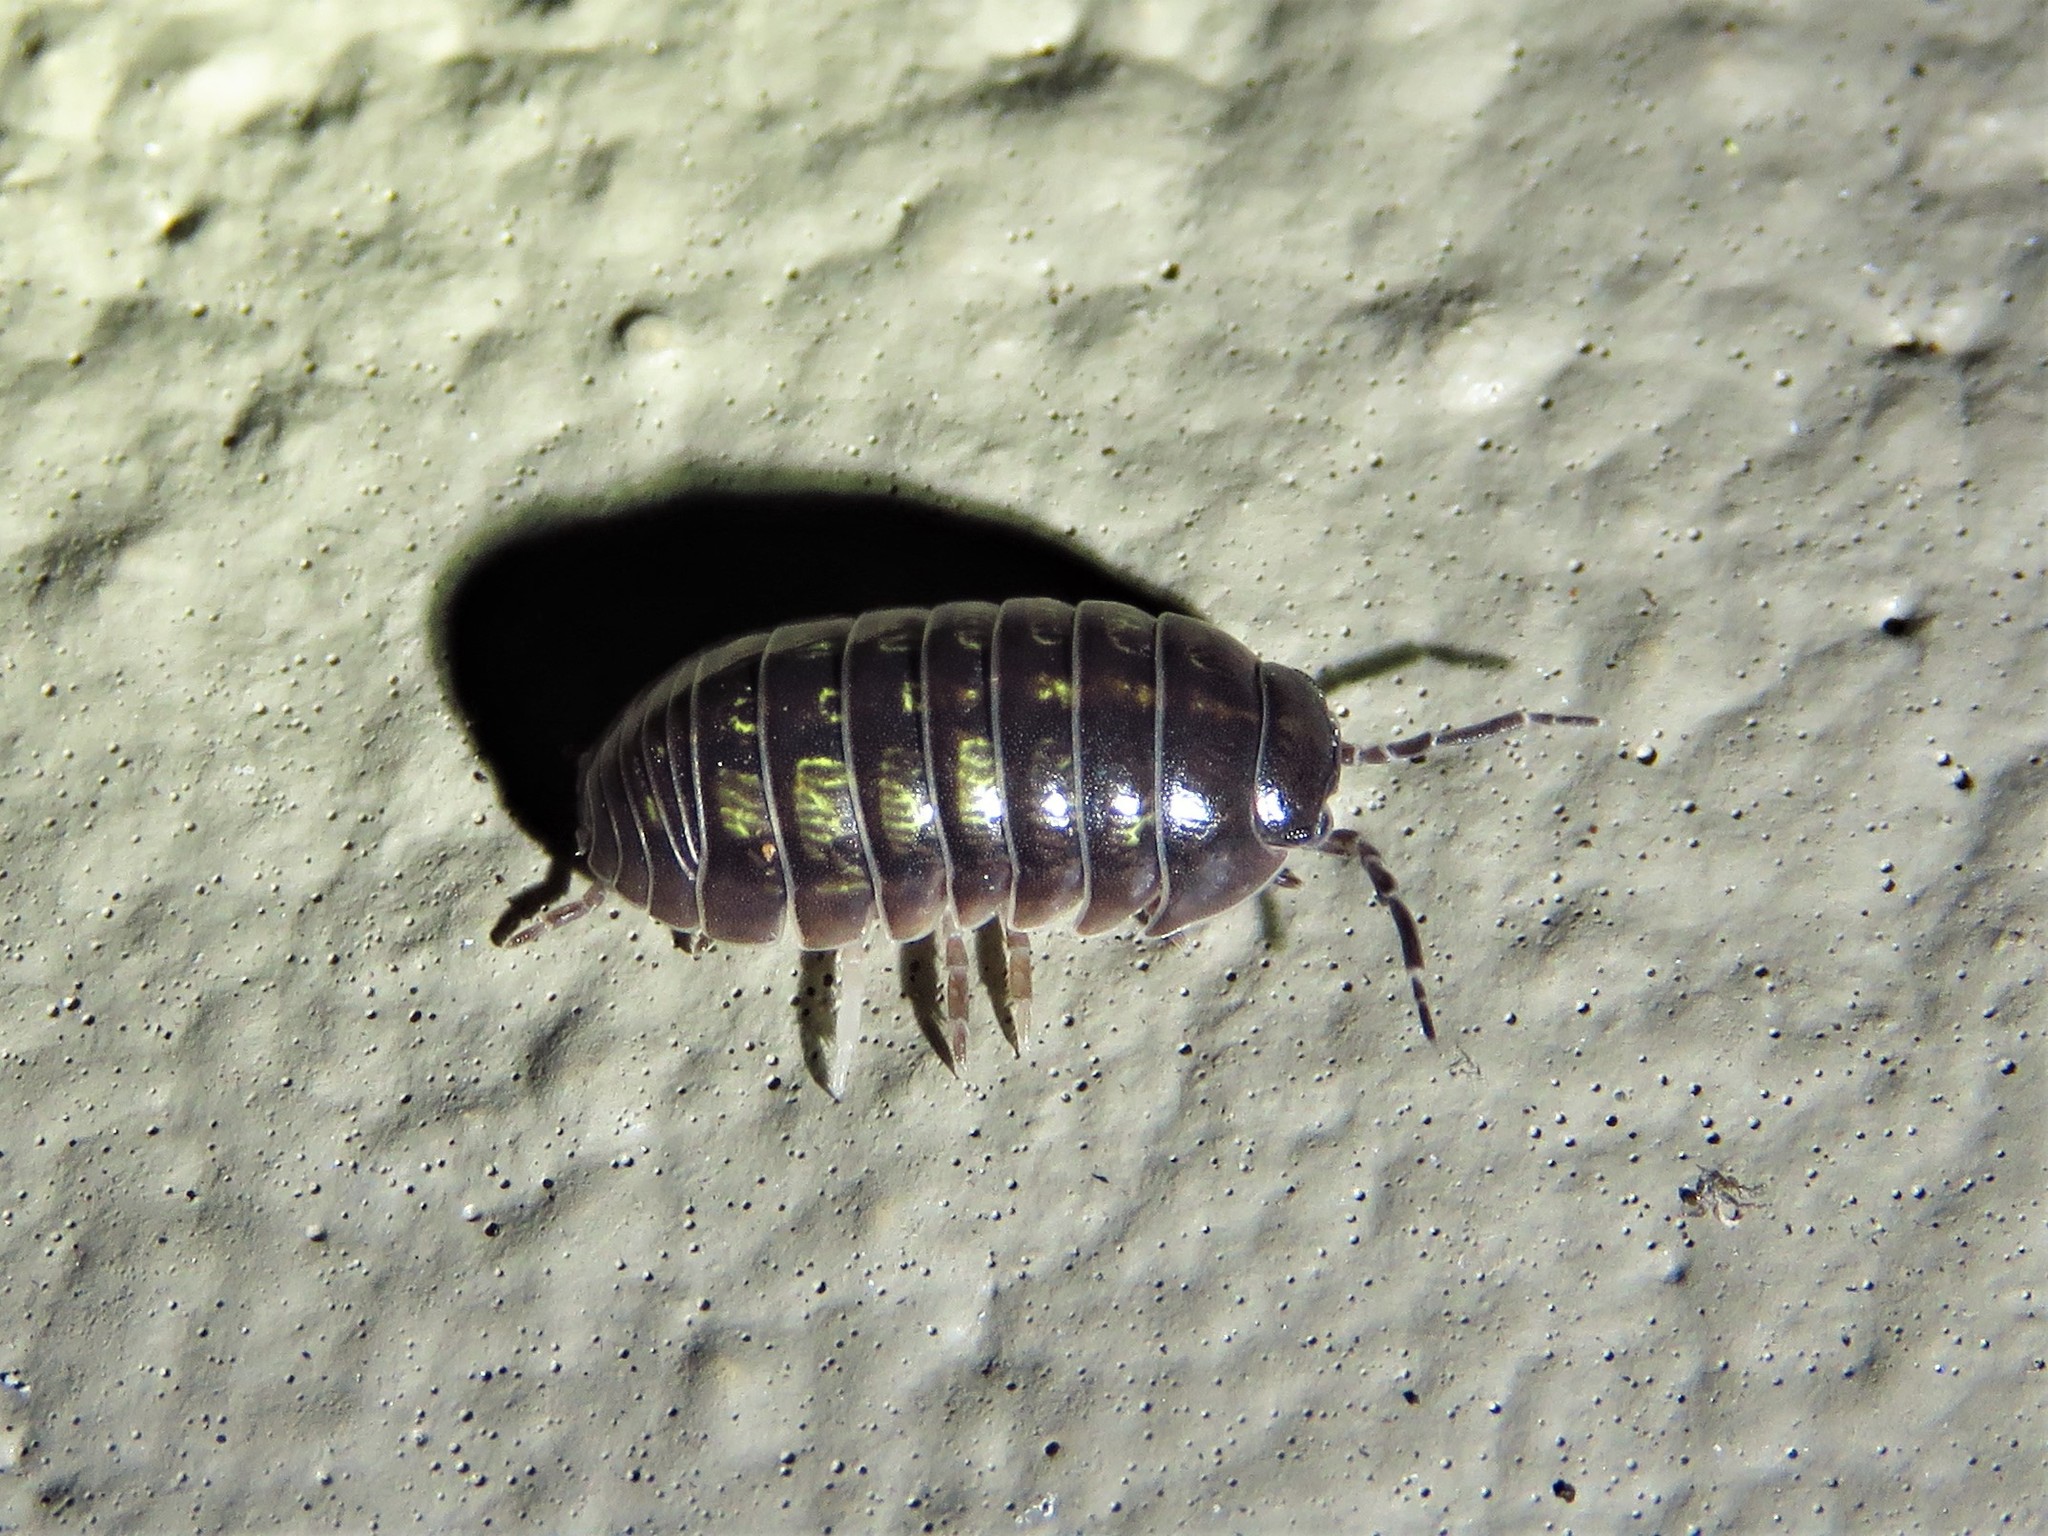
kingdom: Animalia
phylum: Arthropoda
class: Malacostraca
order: Isopoda
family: Armadillidiidae
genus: Armadillidium
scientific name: Armadillidium vulgare
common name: Common pill woodlouse
